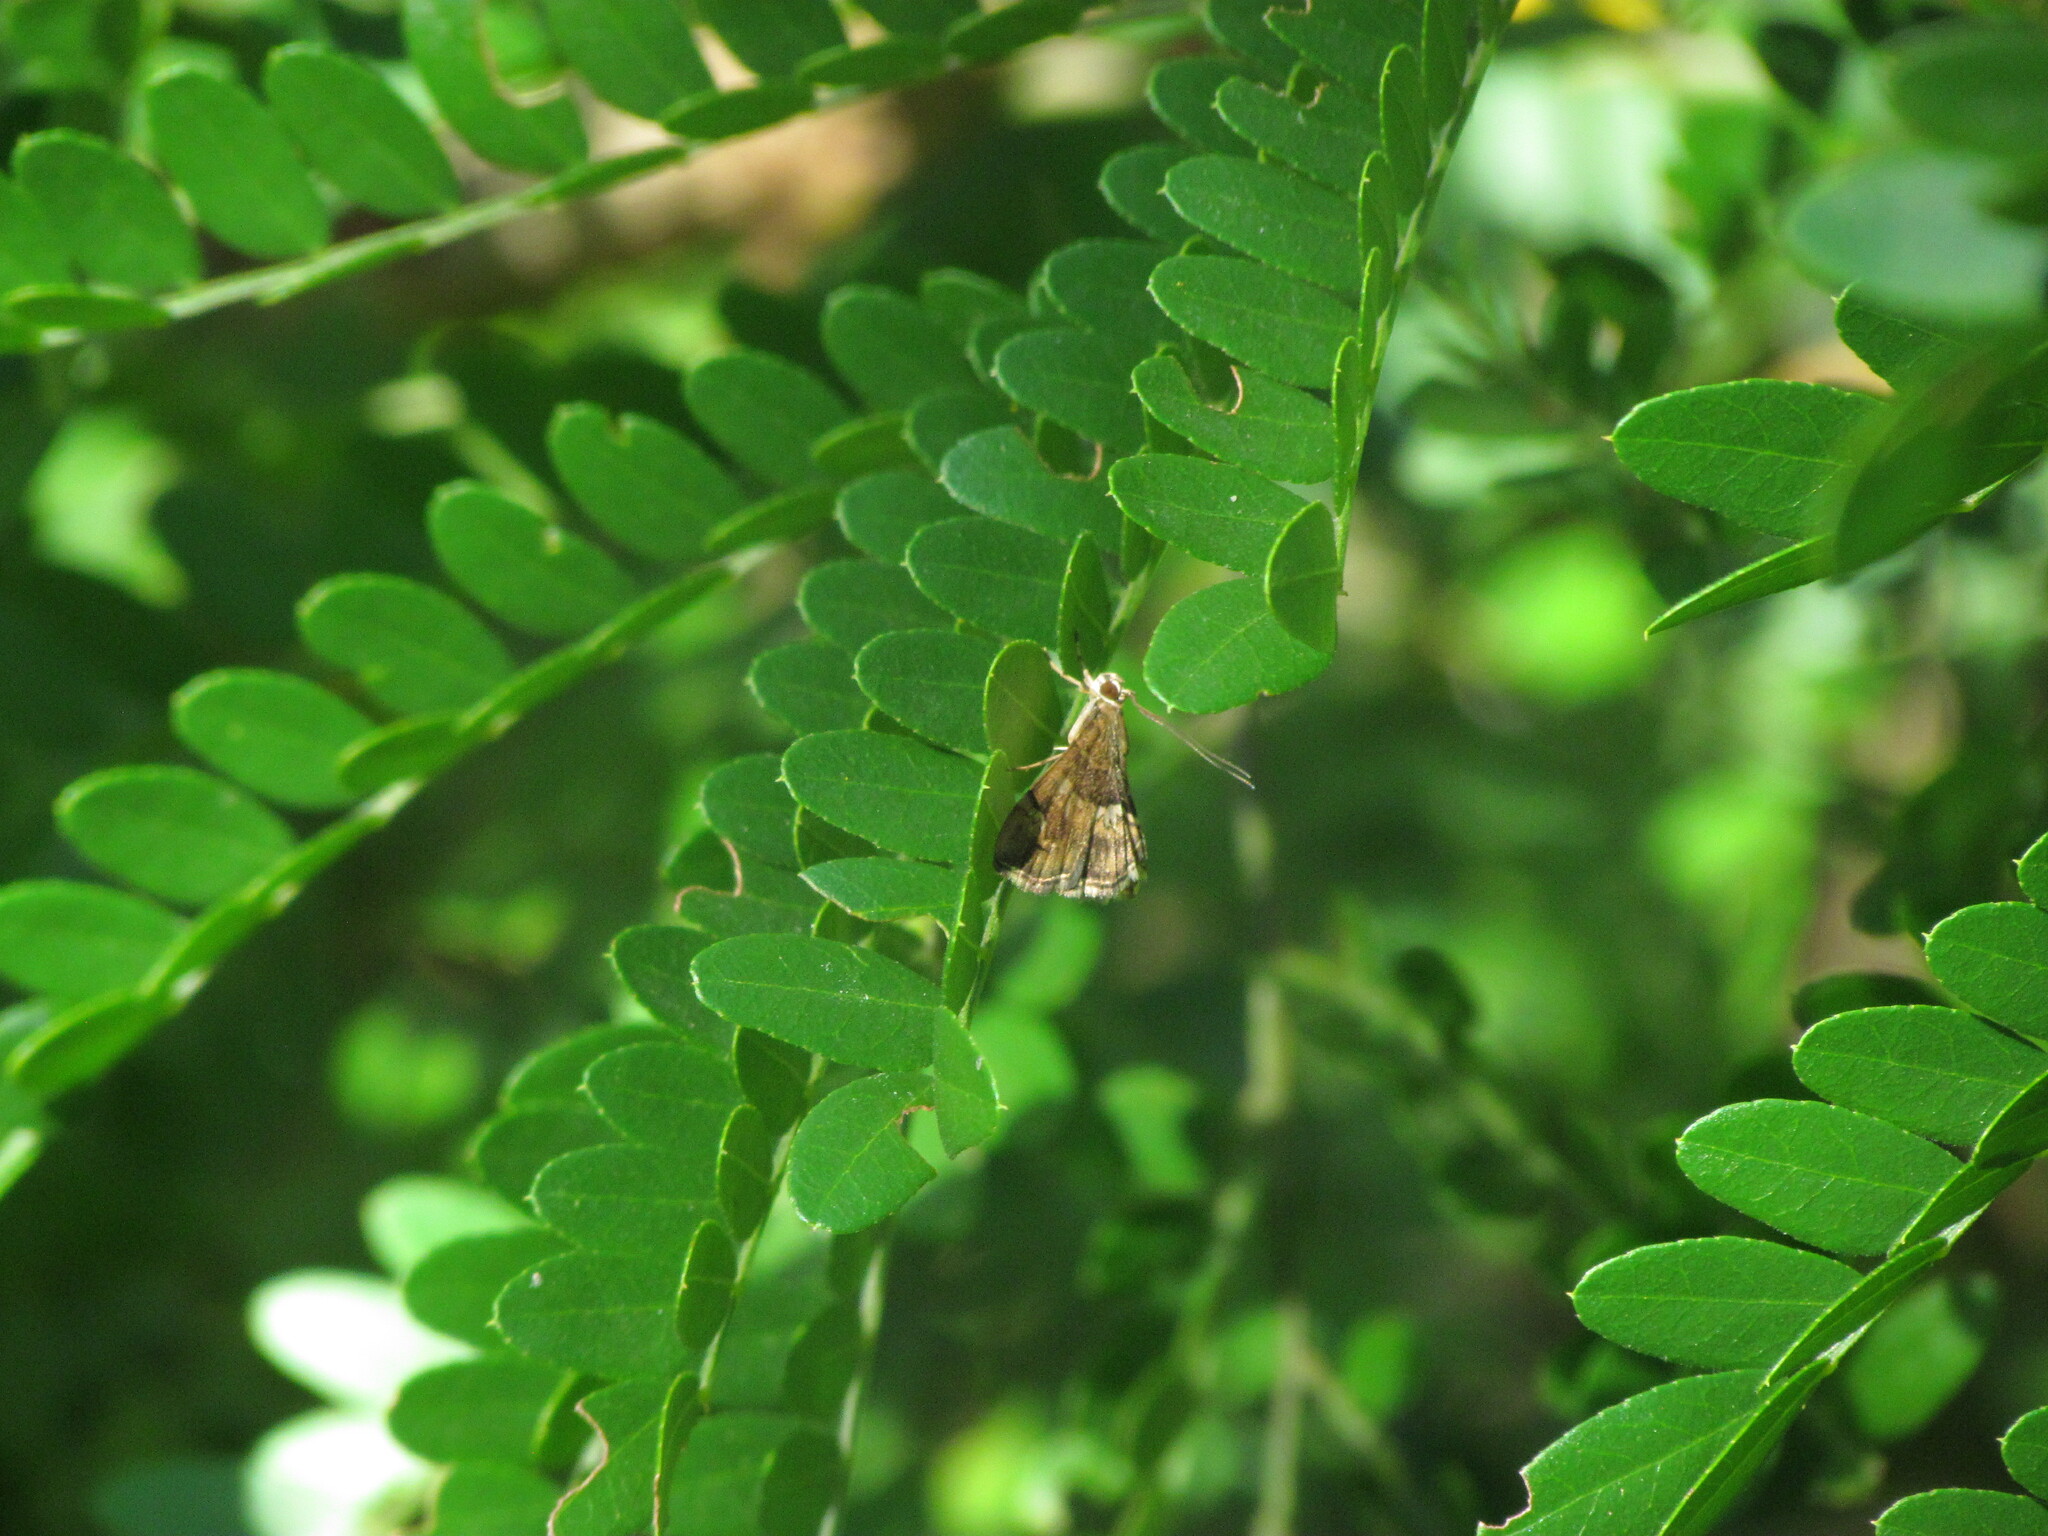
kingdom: Animalia
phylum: Arthropoda
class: Insecta
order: Lepidoptera
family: Crambidae
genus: Hymenia
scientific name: Hymenia perspectalis
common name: Spotted beet webworm
